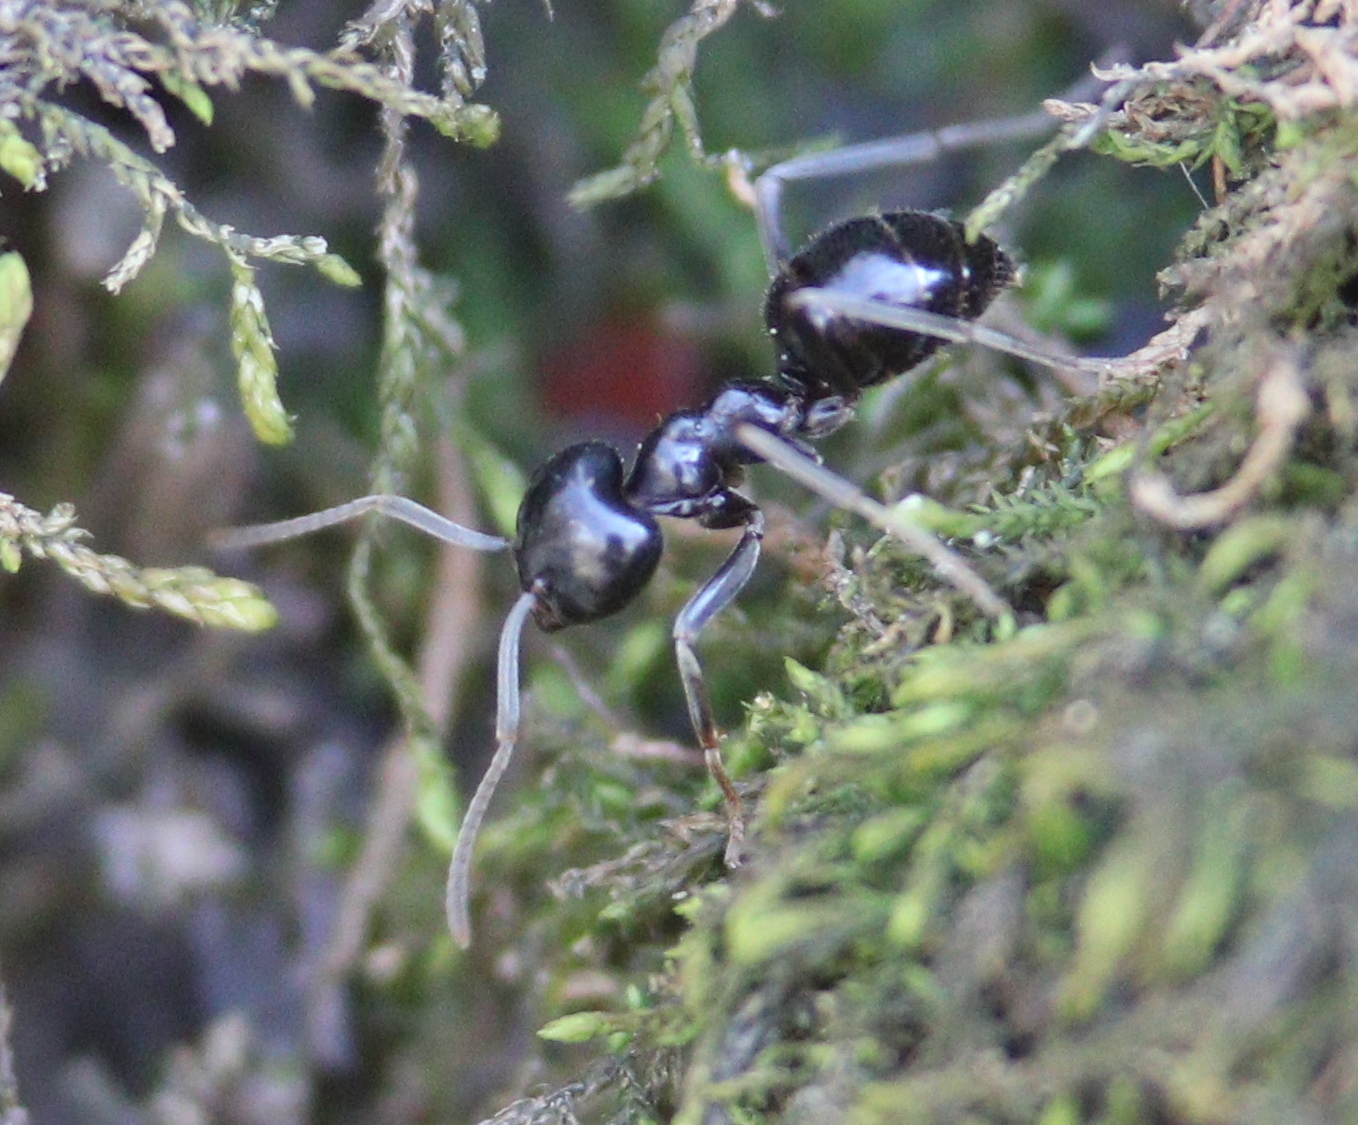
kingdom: Animalia
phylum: Arthropoda
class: Insecta
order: Hymenoptera
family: Formicidae
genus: Lasius
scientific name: Lasius fuliginosus
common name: Jet ant
